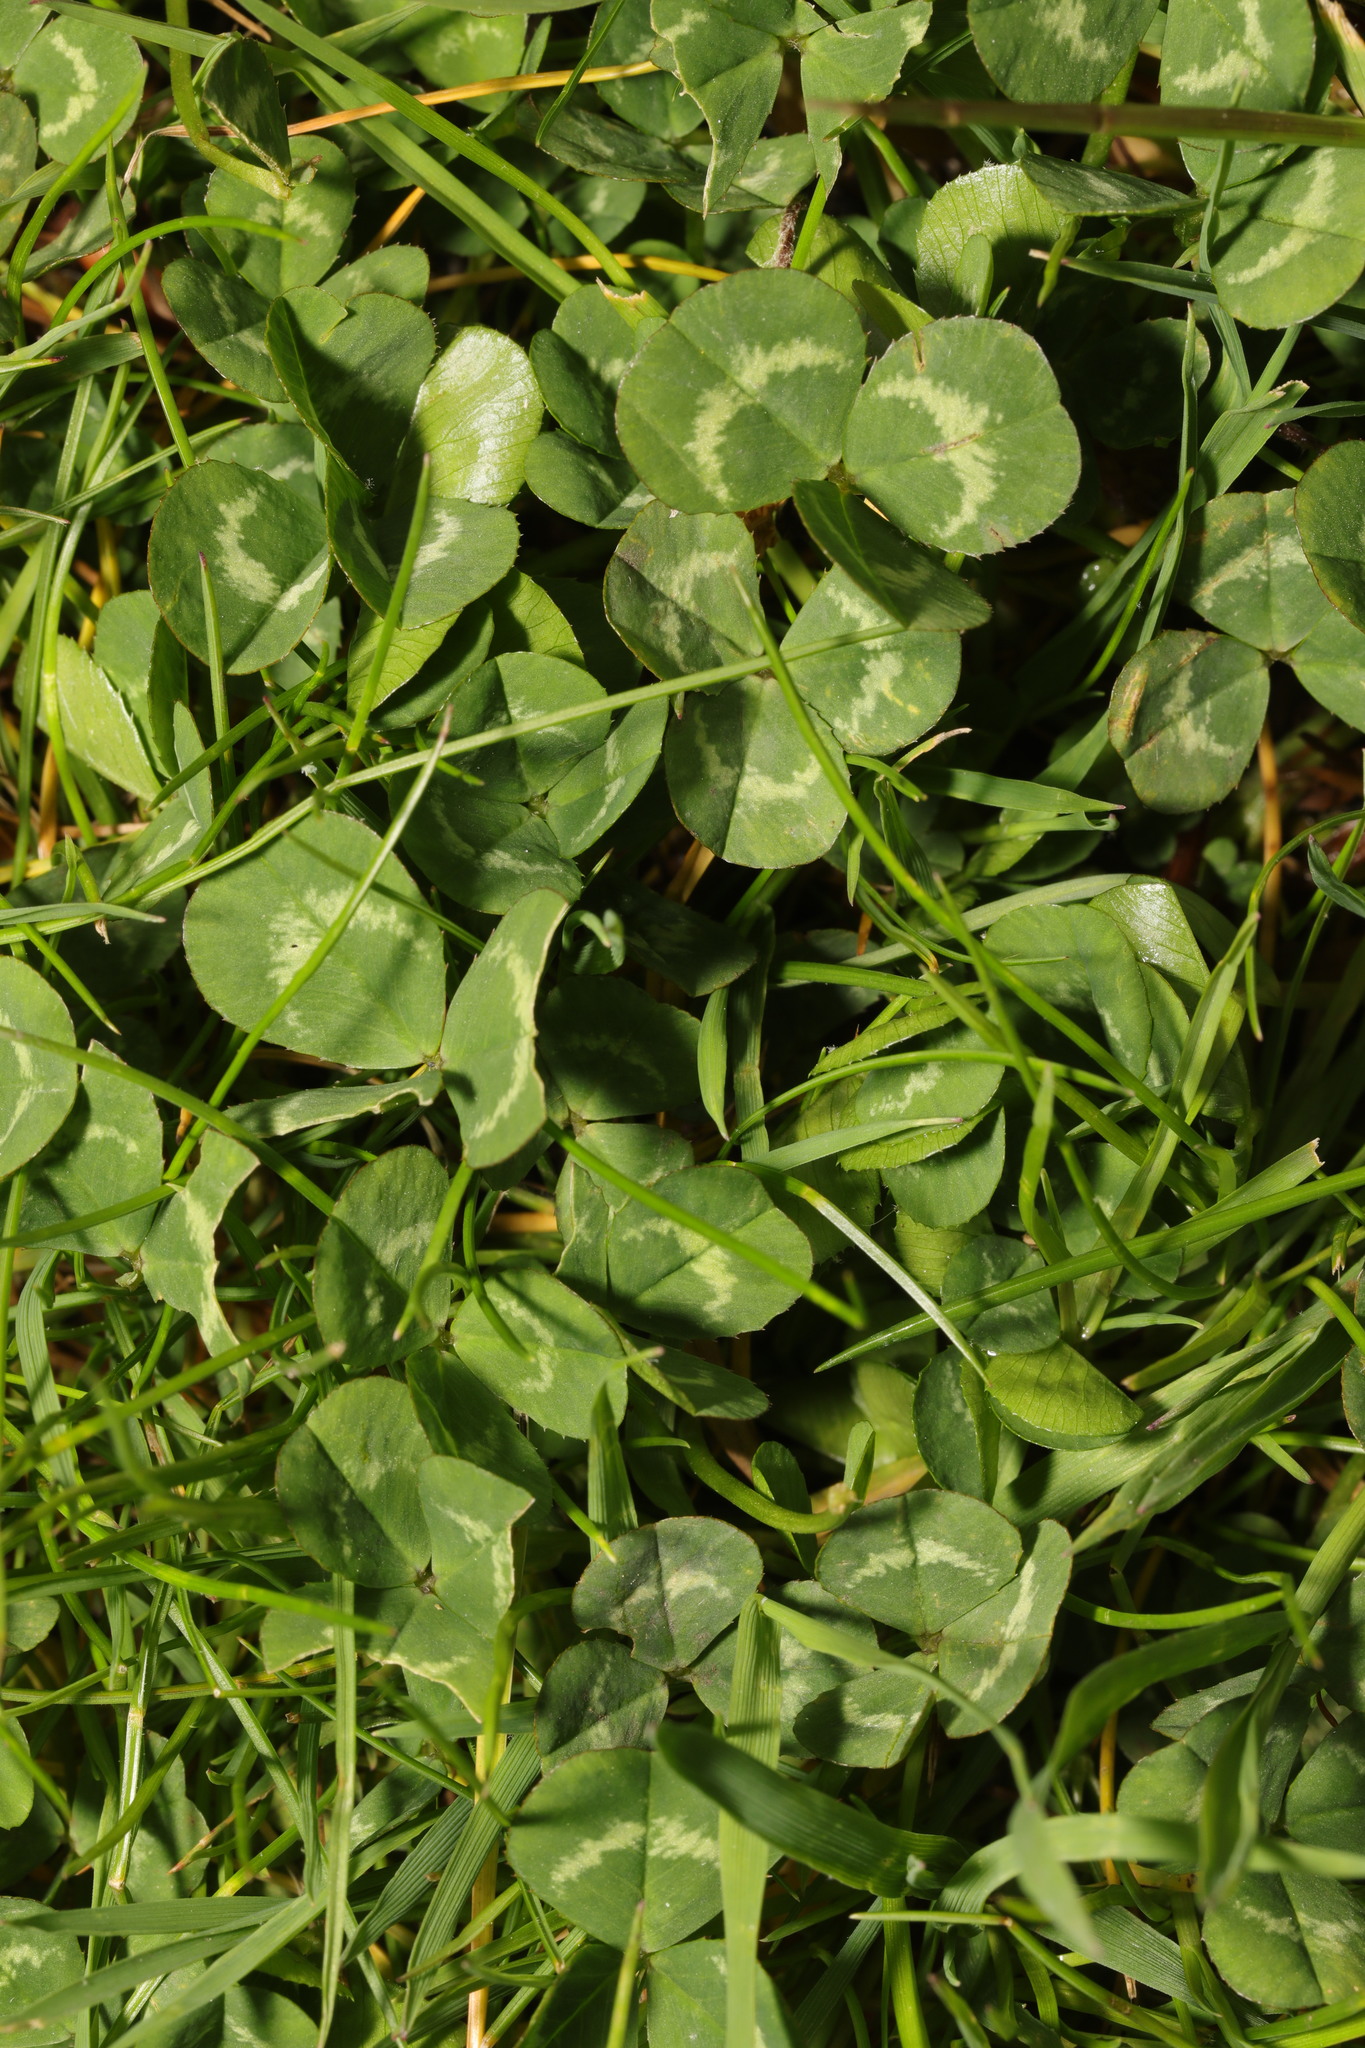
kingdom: Plantae
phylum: Tracheophyta
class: Magnoliopsida
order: Fabales
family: Fabaceae
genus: Trifolium
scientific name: Trifolium repens
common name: White clover
